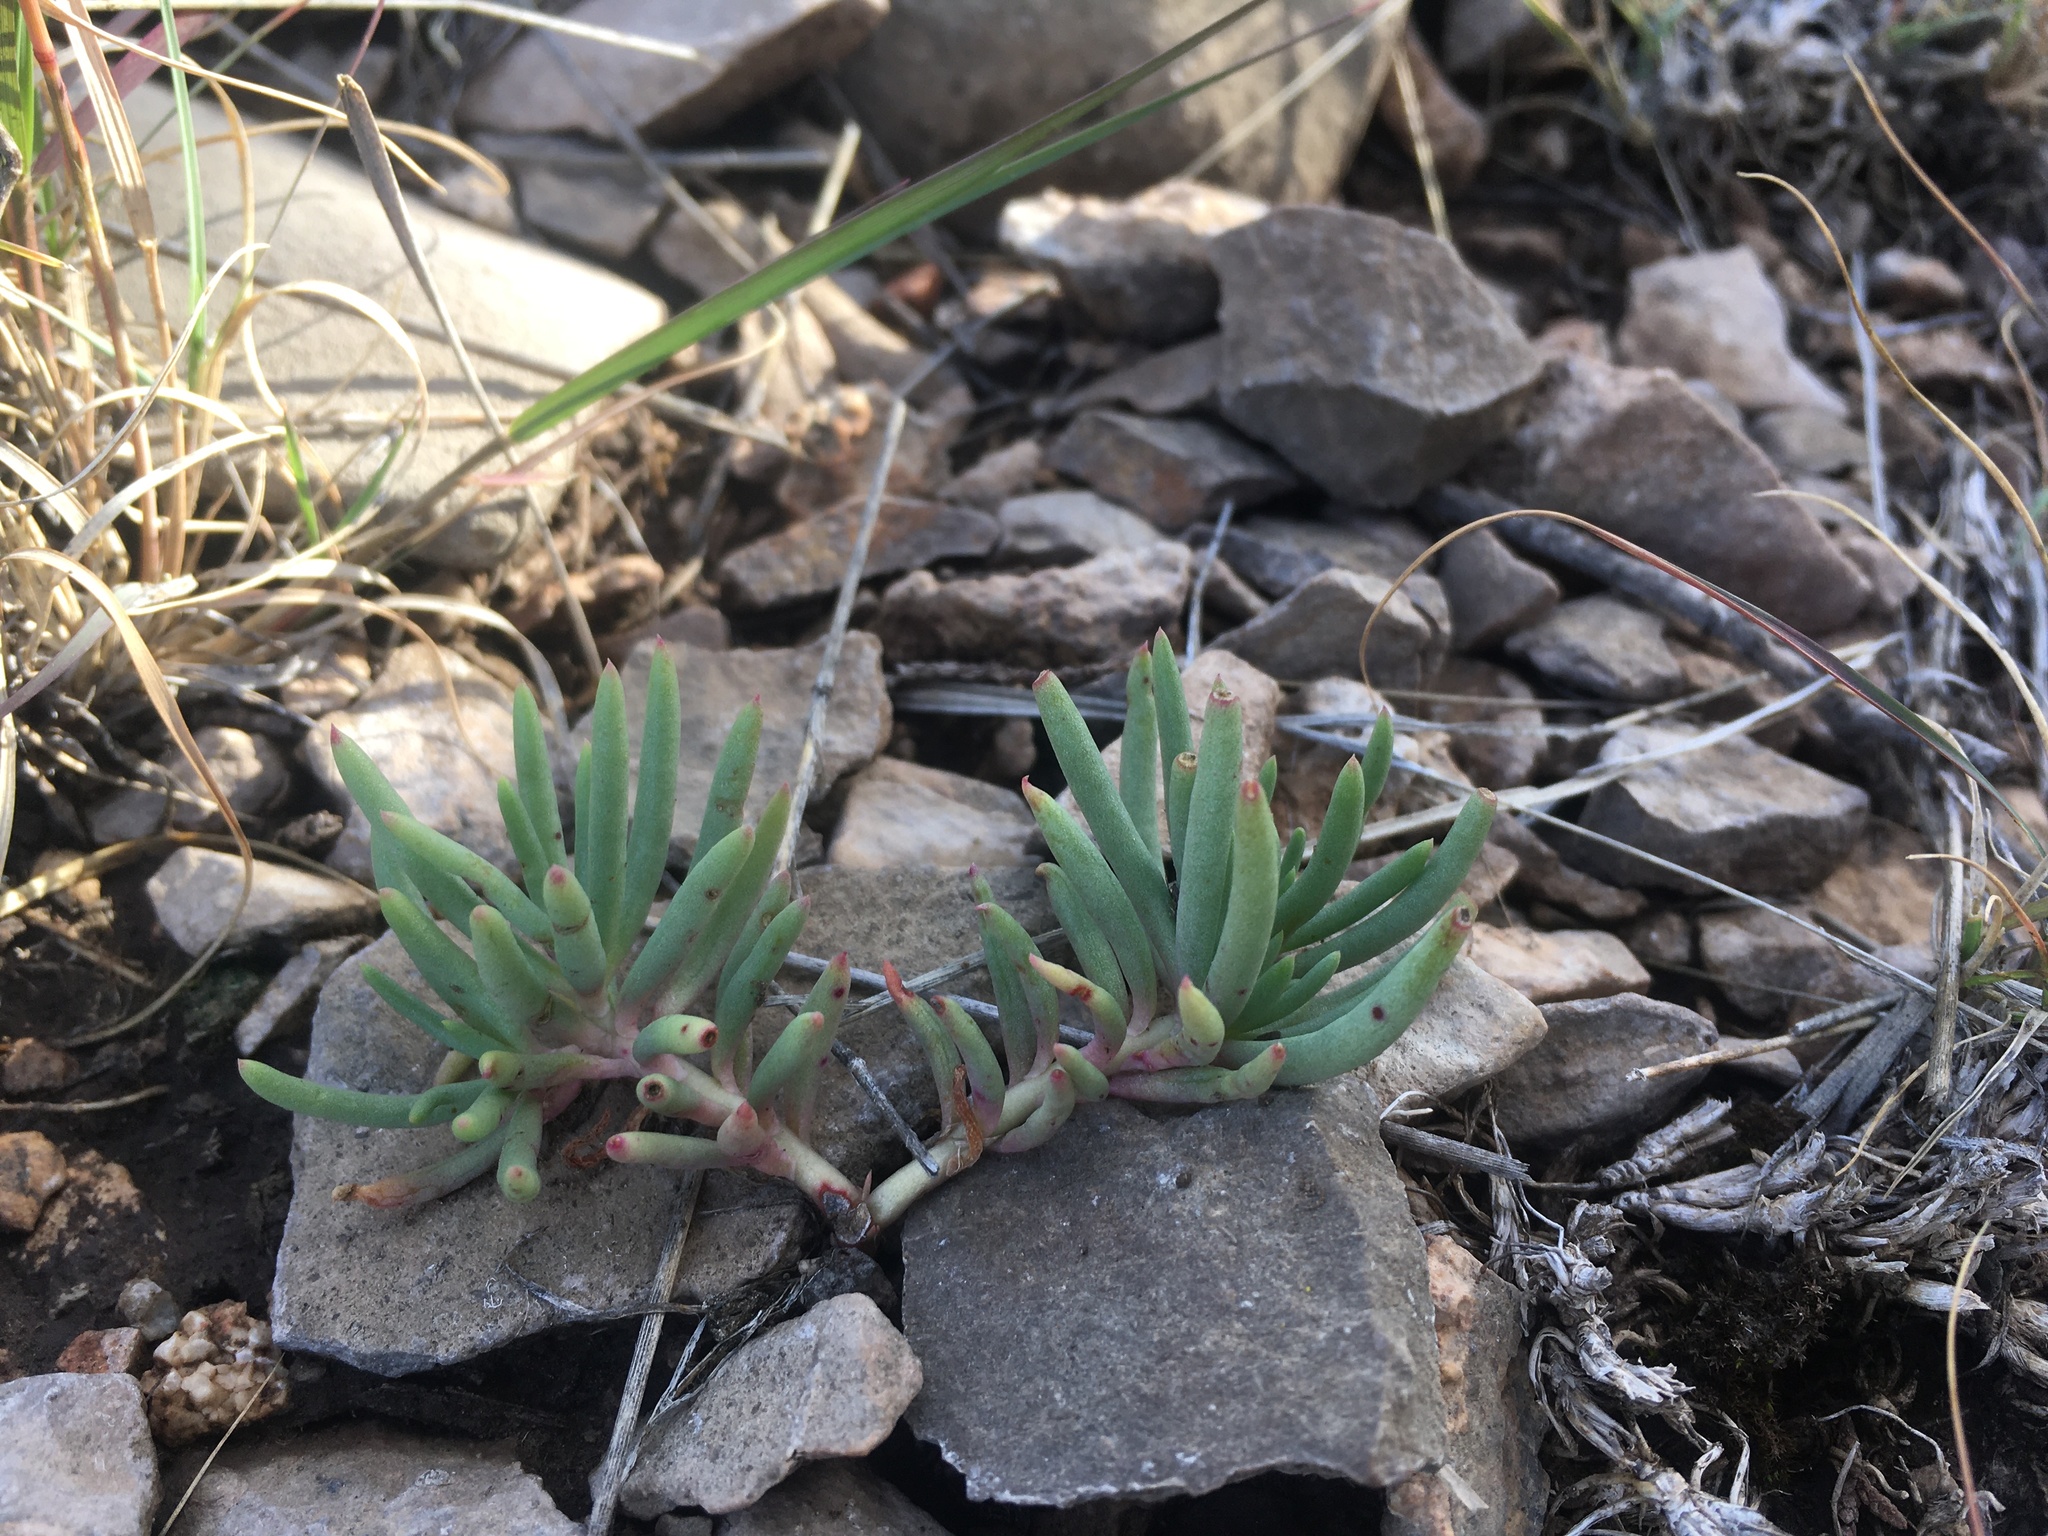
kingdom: Plantae
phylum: Tracheophyta
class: Magnoliopsida
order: Caryophyllales
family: Montiaceae
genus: Phemeranthus
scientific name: Phemeranthus brevicaulis
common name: Dwarf fameflower
